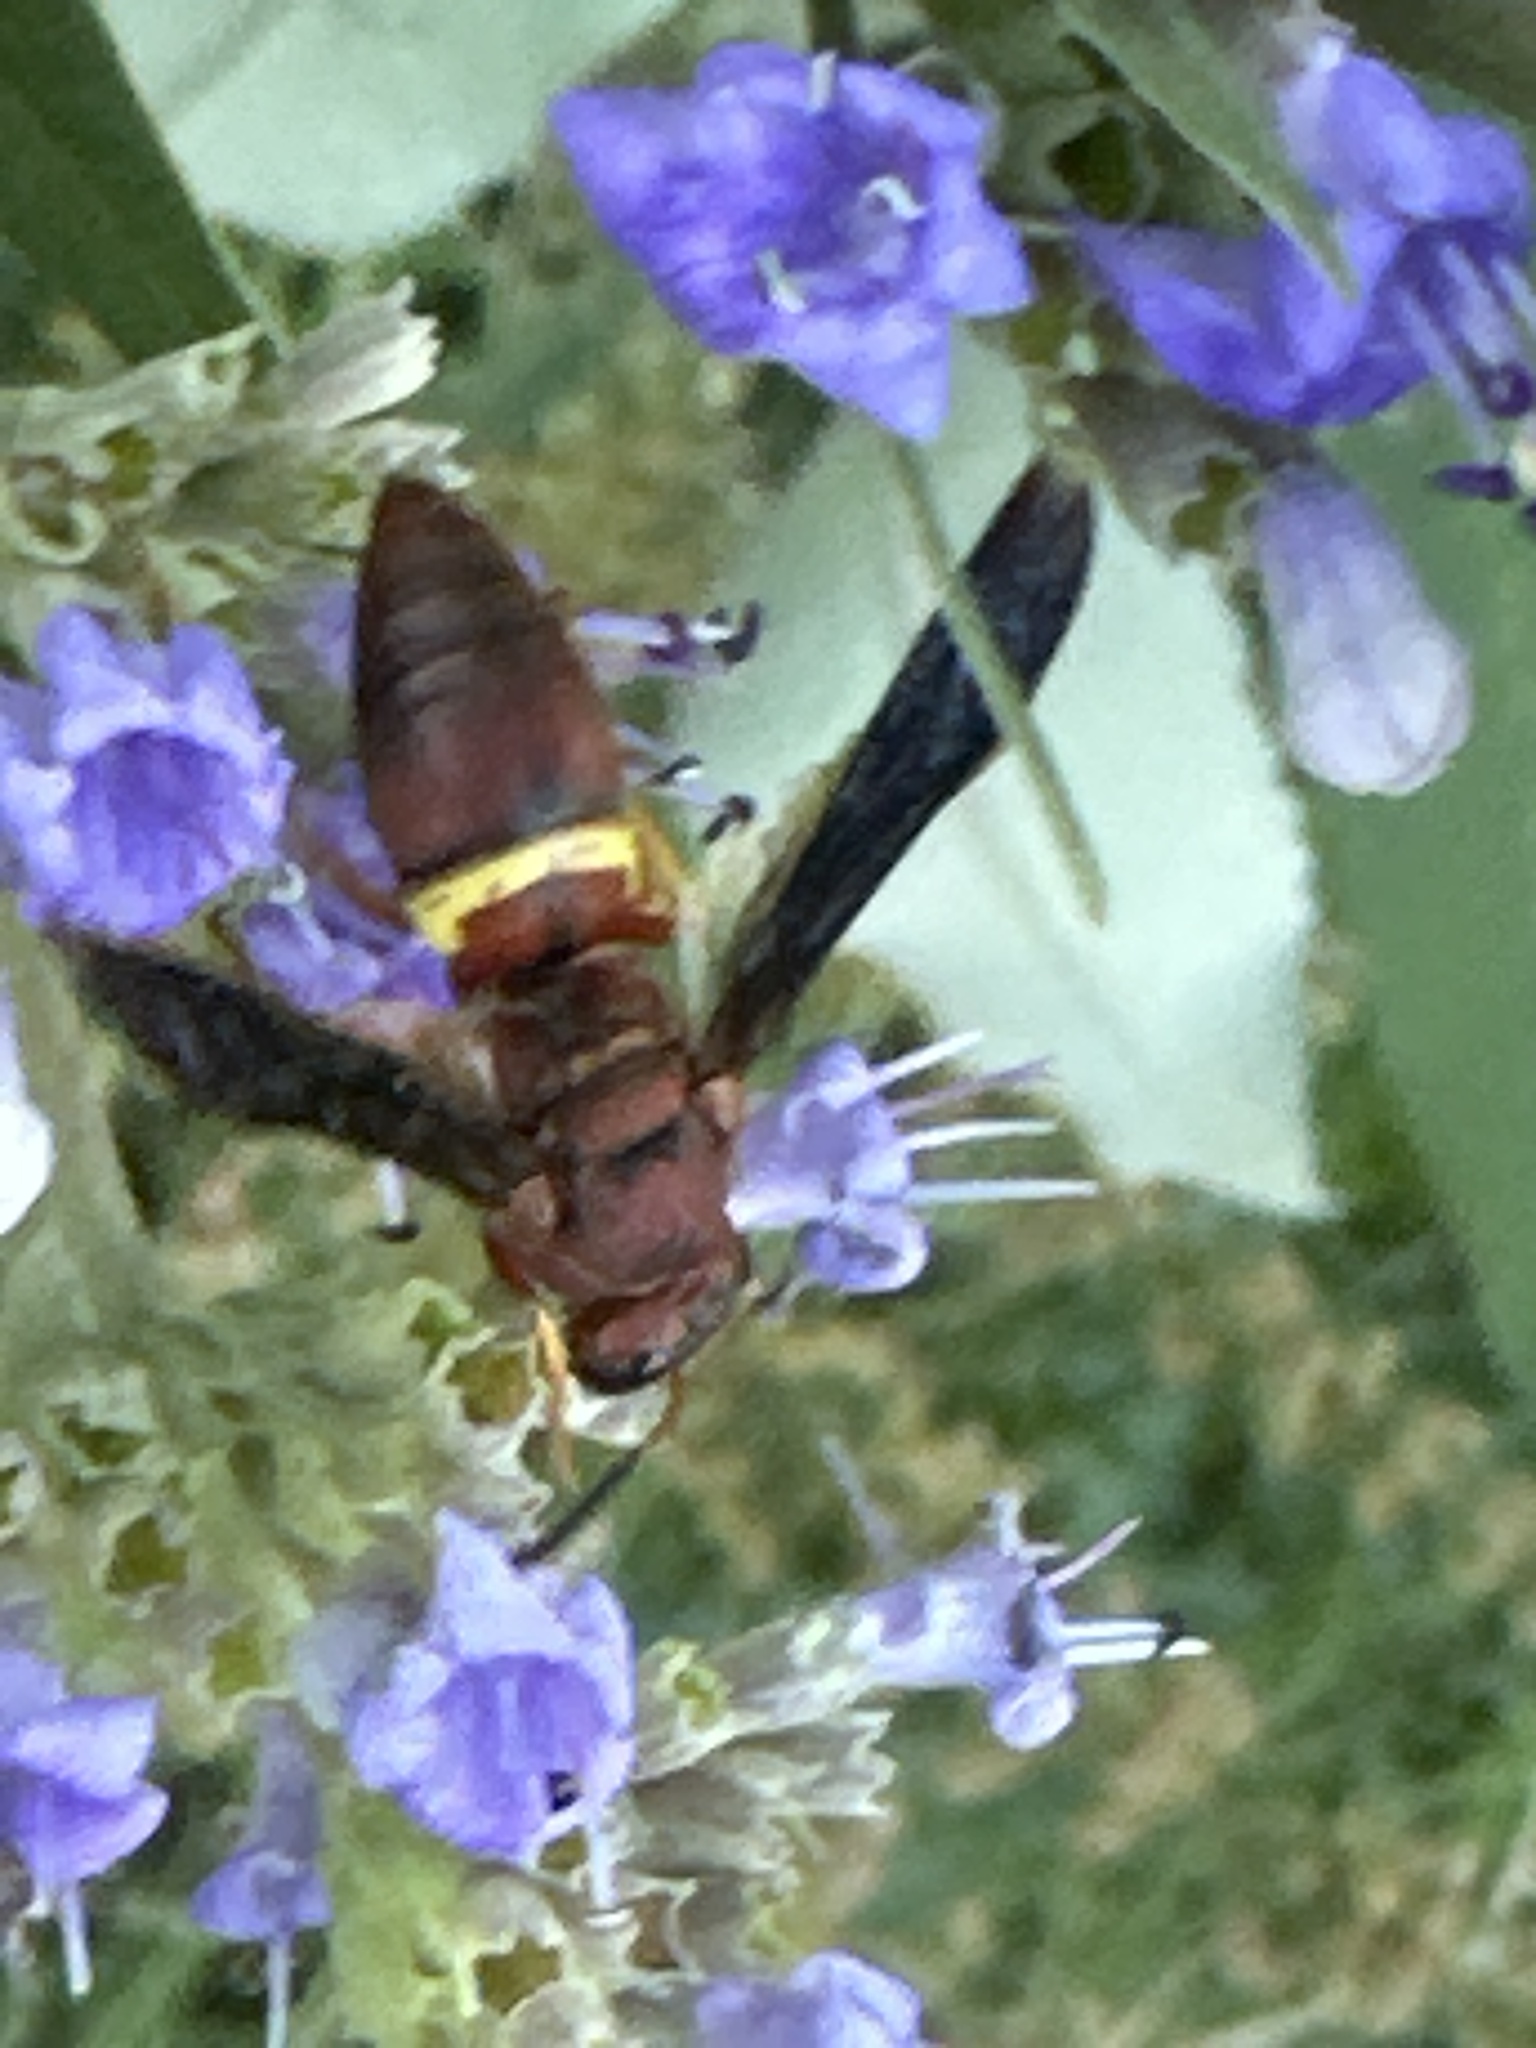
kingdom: Animalia
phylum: Arthropoda
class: Insecta
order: Hymenoptera
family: Eumenidae
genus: Euodynerus
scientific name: Euodynerus crypticus
